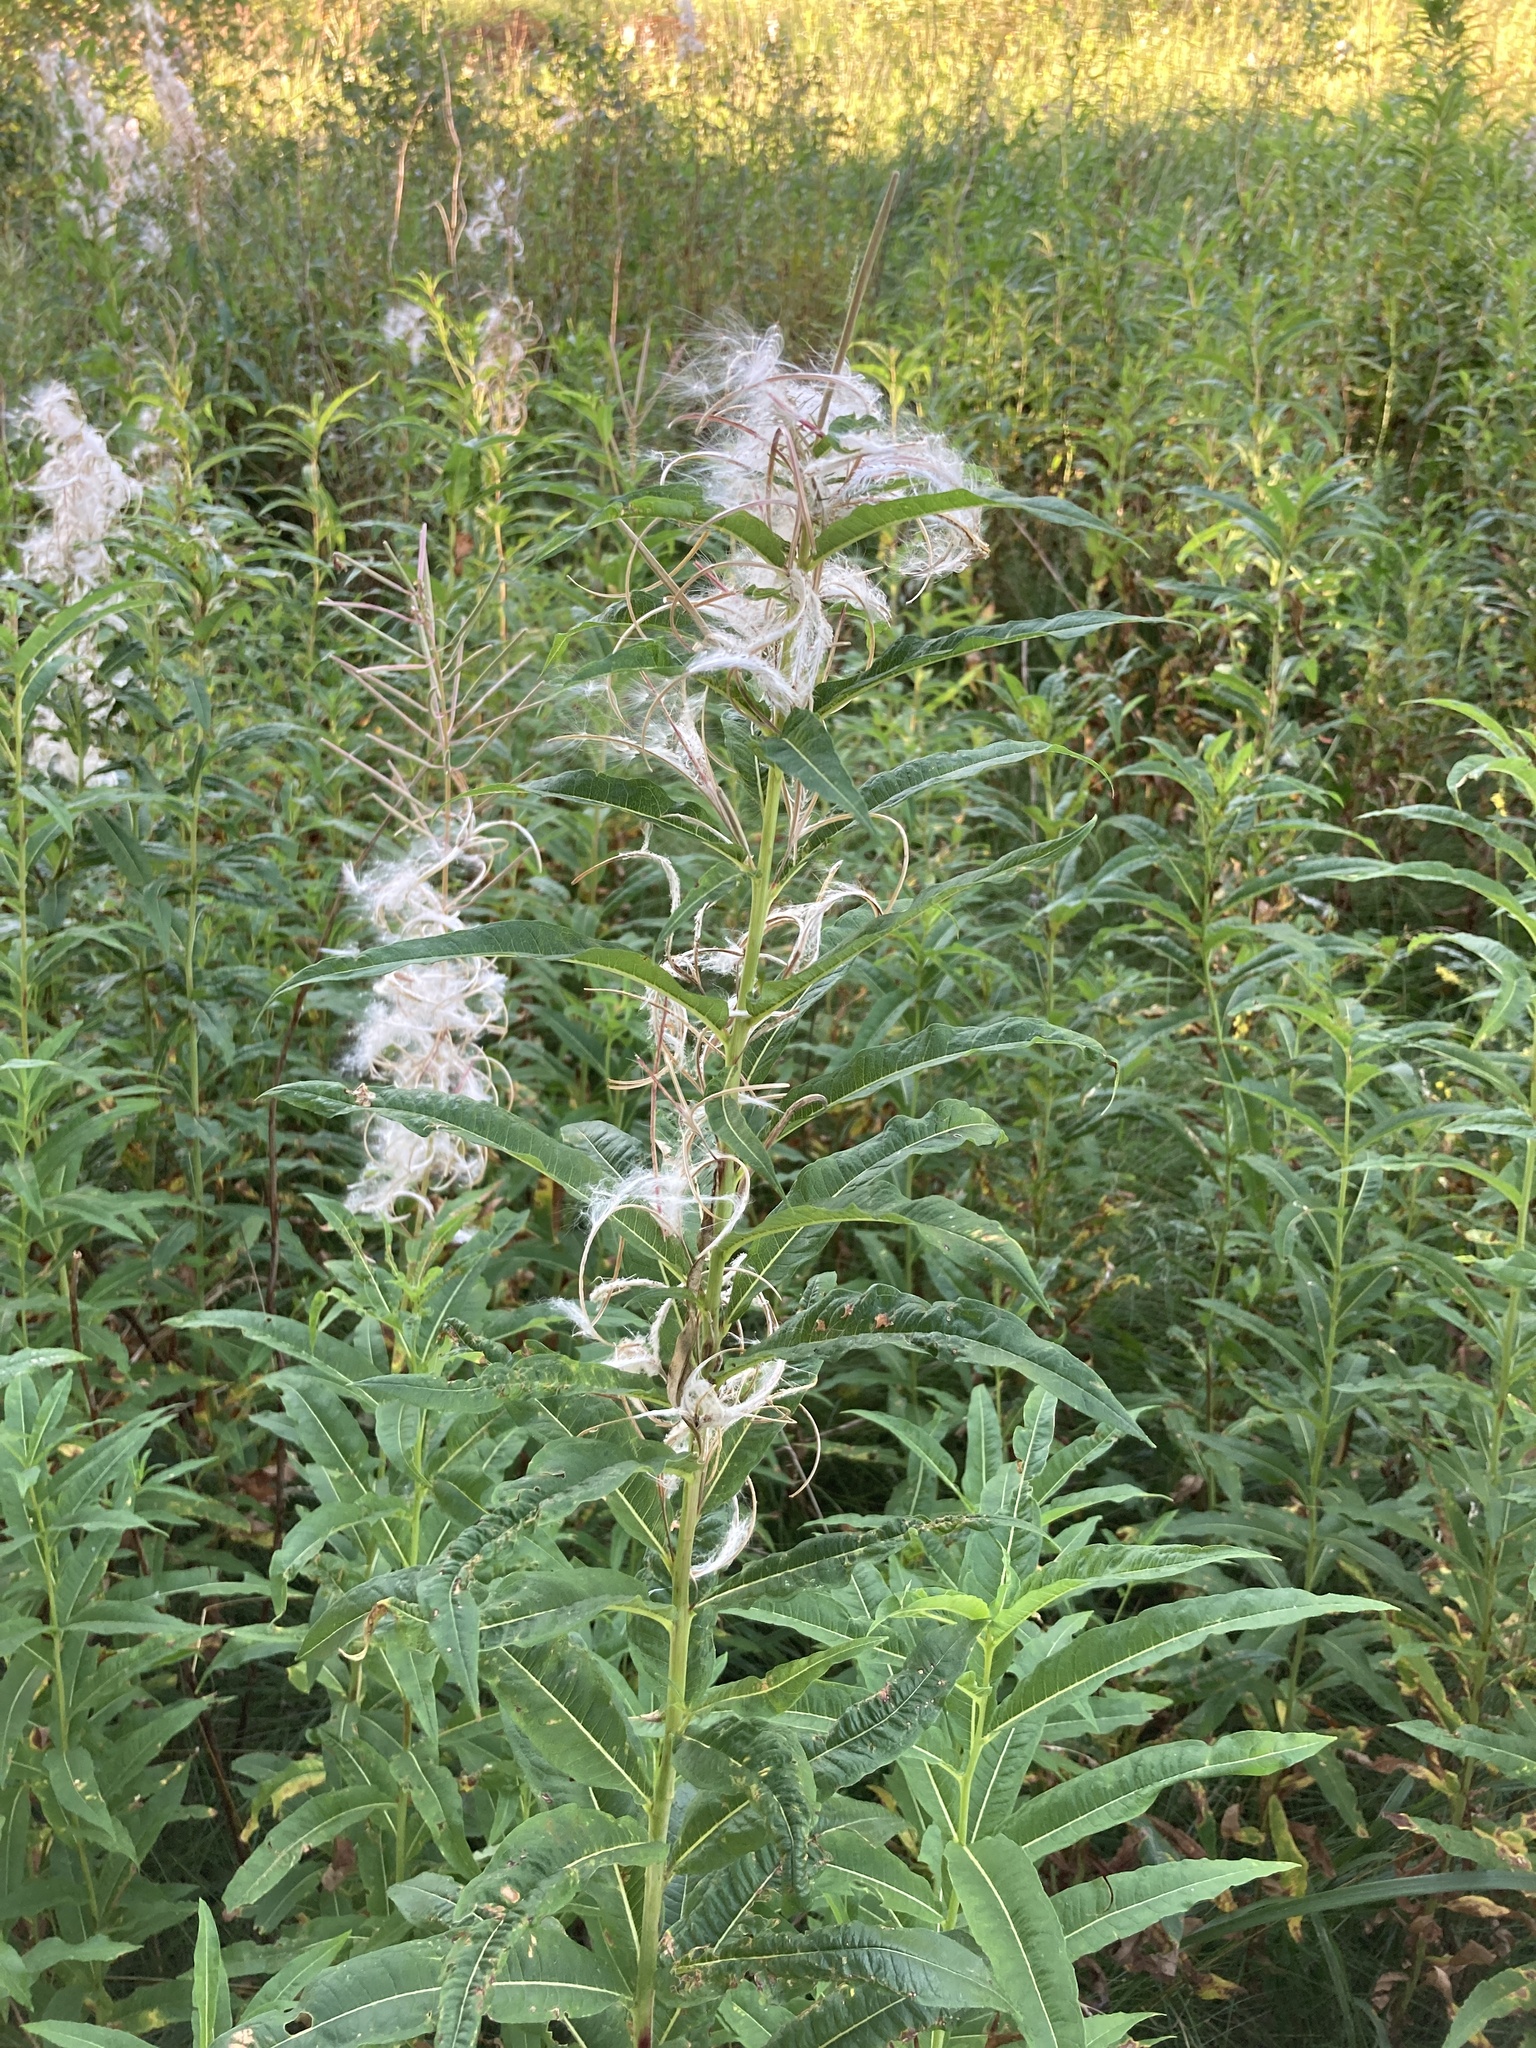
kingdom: Plantae
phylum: Tracheophyta
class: Magnoliopsida
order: Myrtales
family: Onagraceae
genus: Chamaenerion
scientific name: Chamaenerion angustifolium
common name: Fireweed
